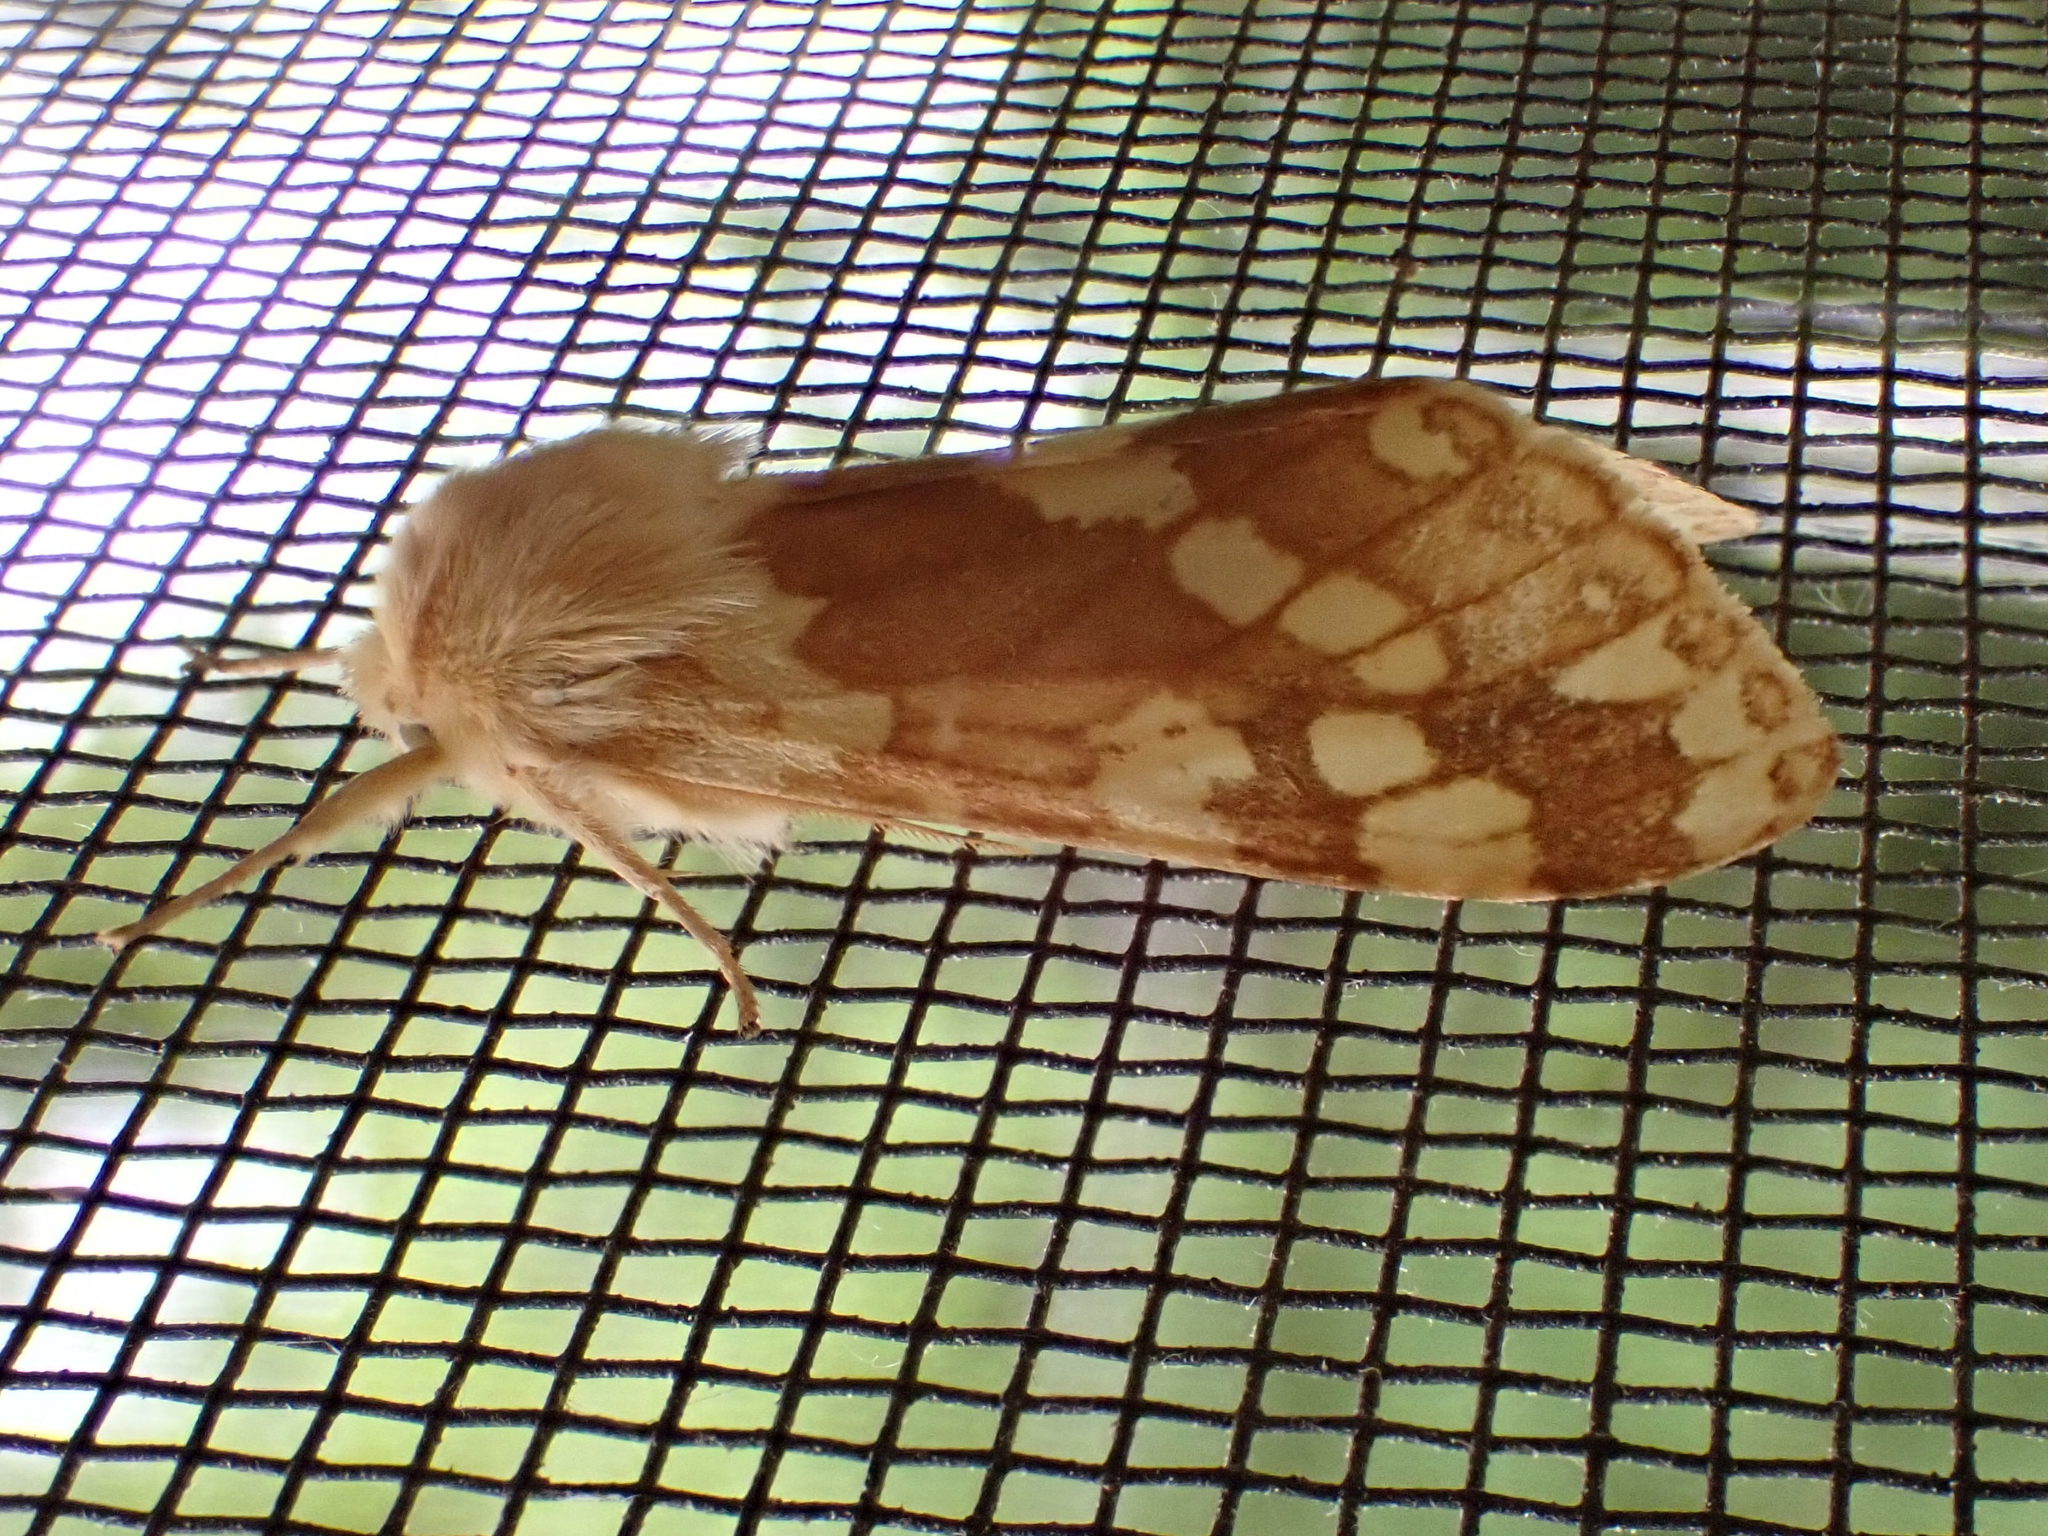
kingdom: Animalia
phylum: Arthropoda
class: Insecta
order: Lepidoptera
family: Erebidae
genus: Lophocampa
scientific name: Lophocampa maculata
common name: Spotted tussock moth
